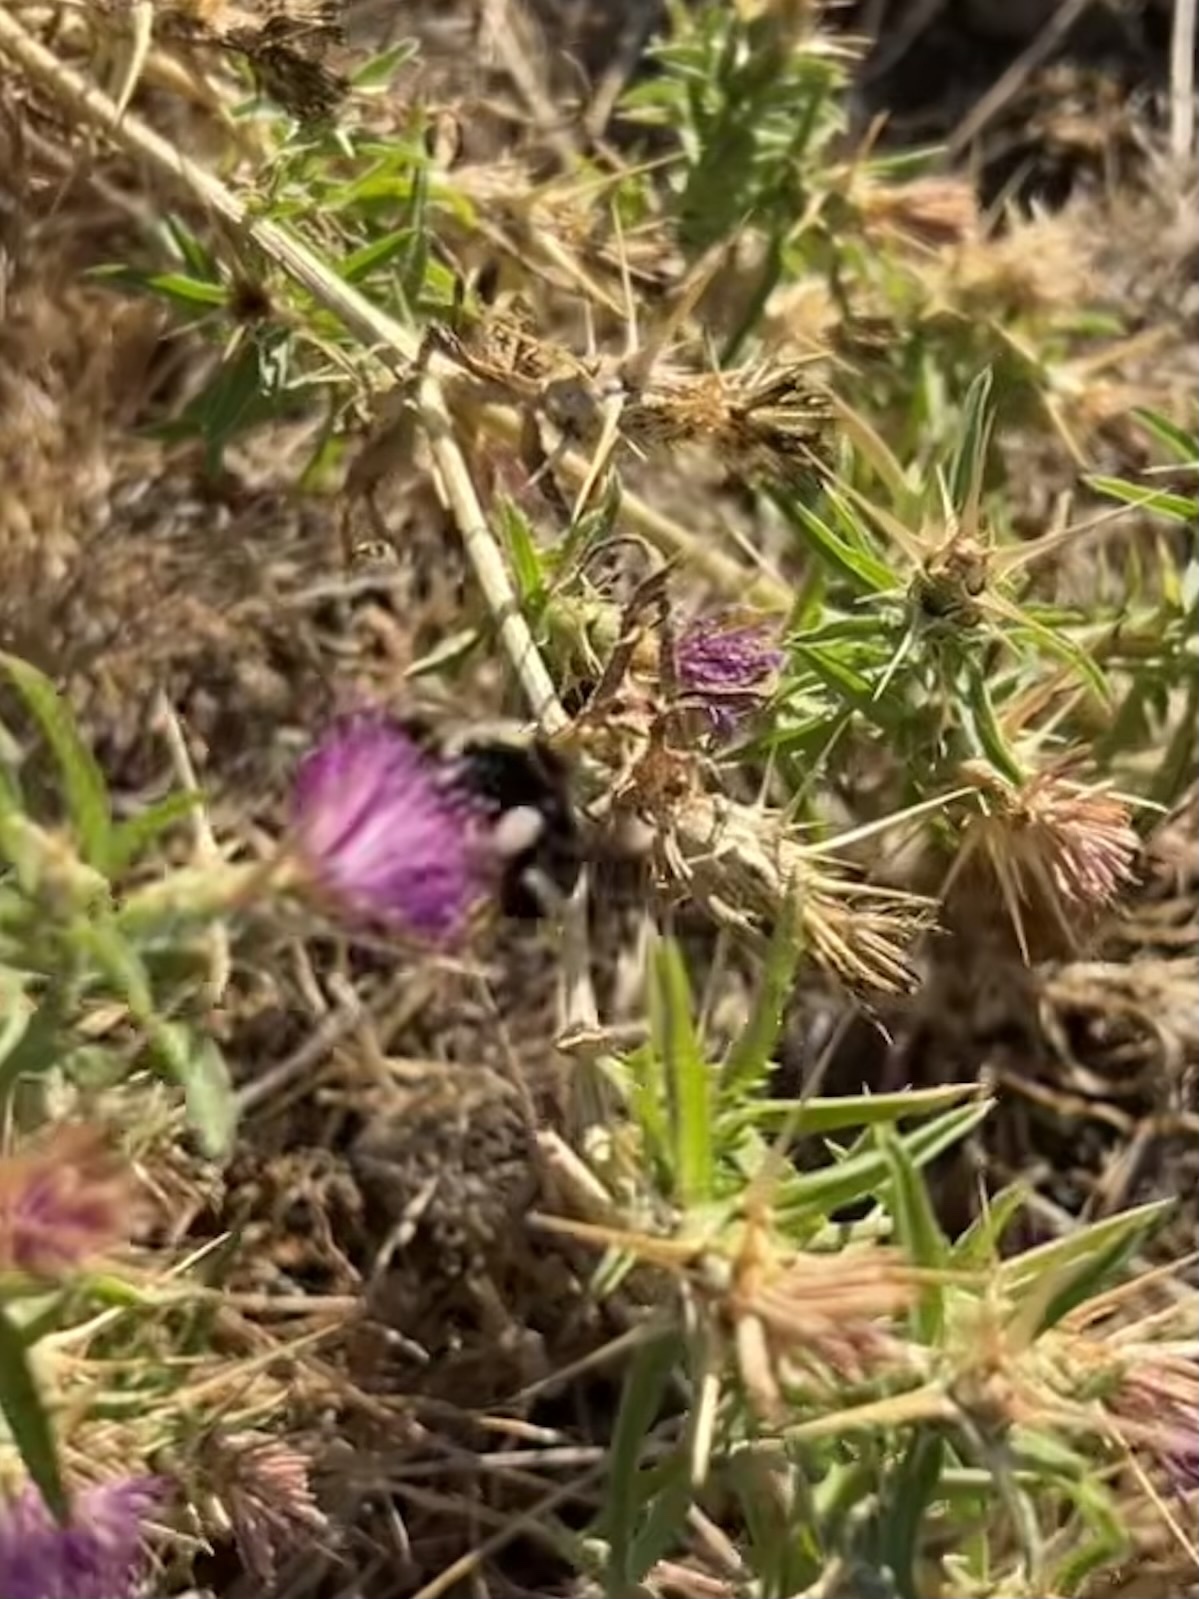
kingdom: Animalia
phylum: Arthropoda
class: Insecta
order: Hymenoptera
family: Apidae
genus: Bombus
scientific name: Bombus vosnesenskii
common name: Vosnesensky bumble bee
